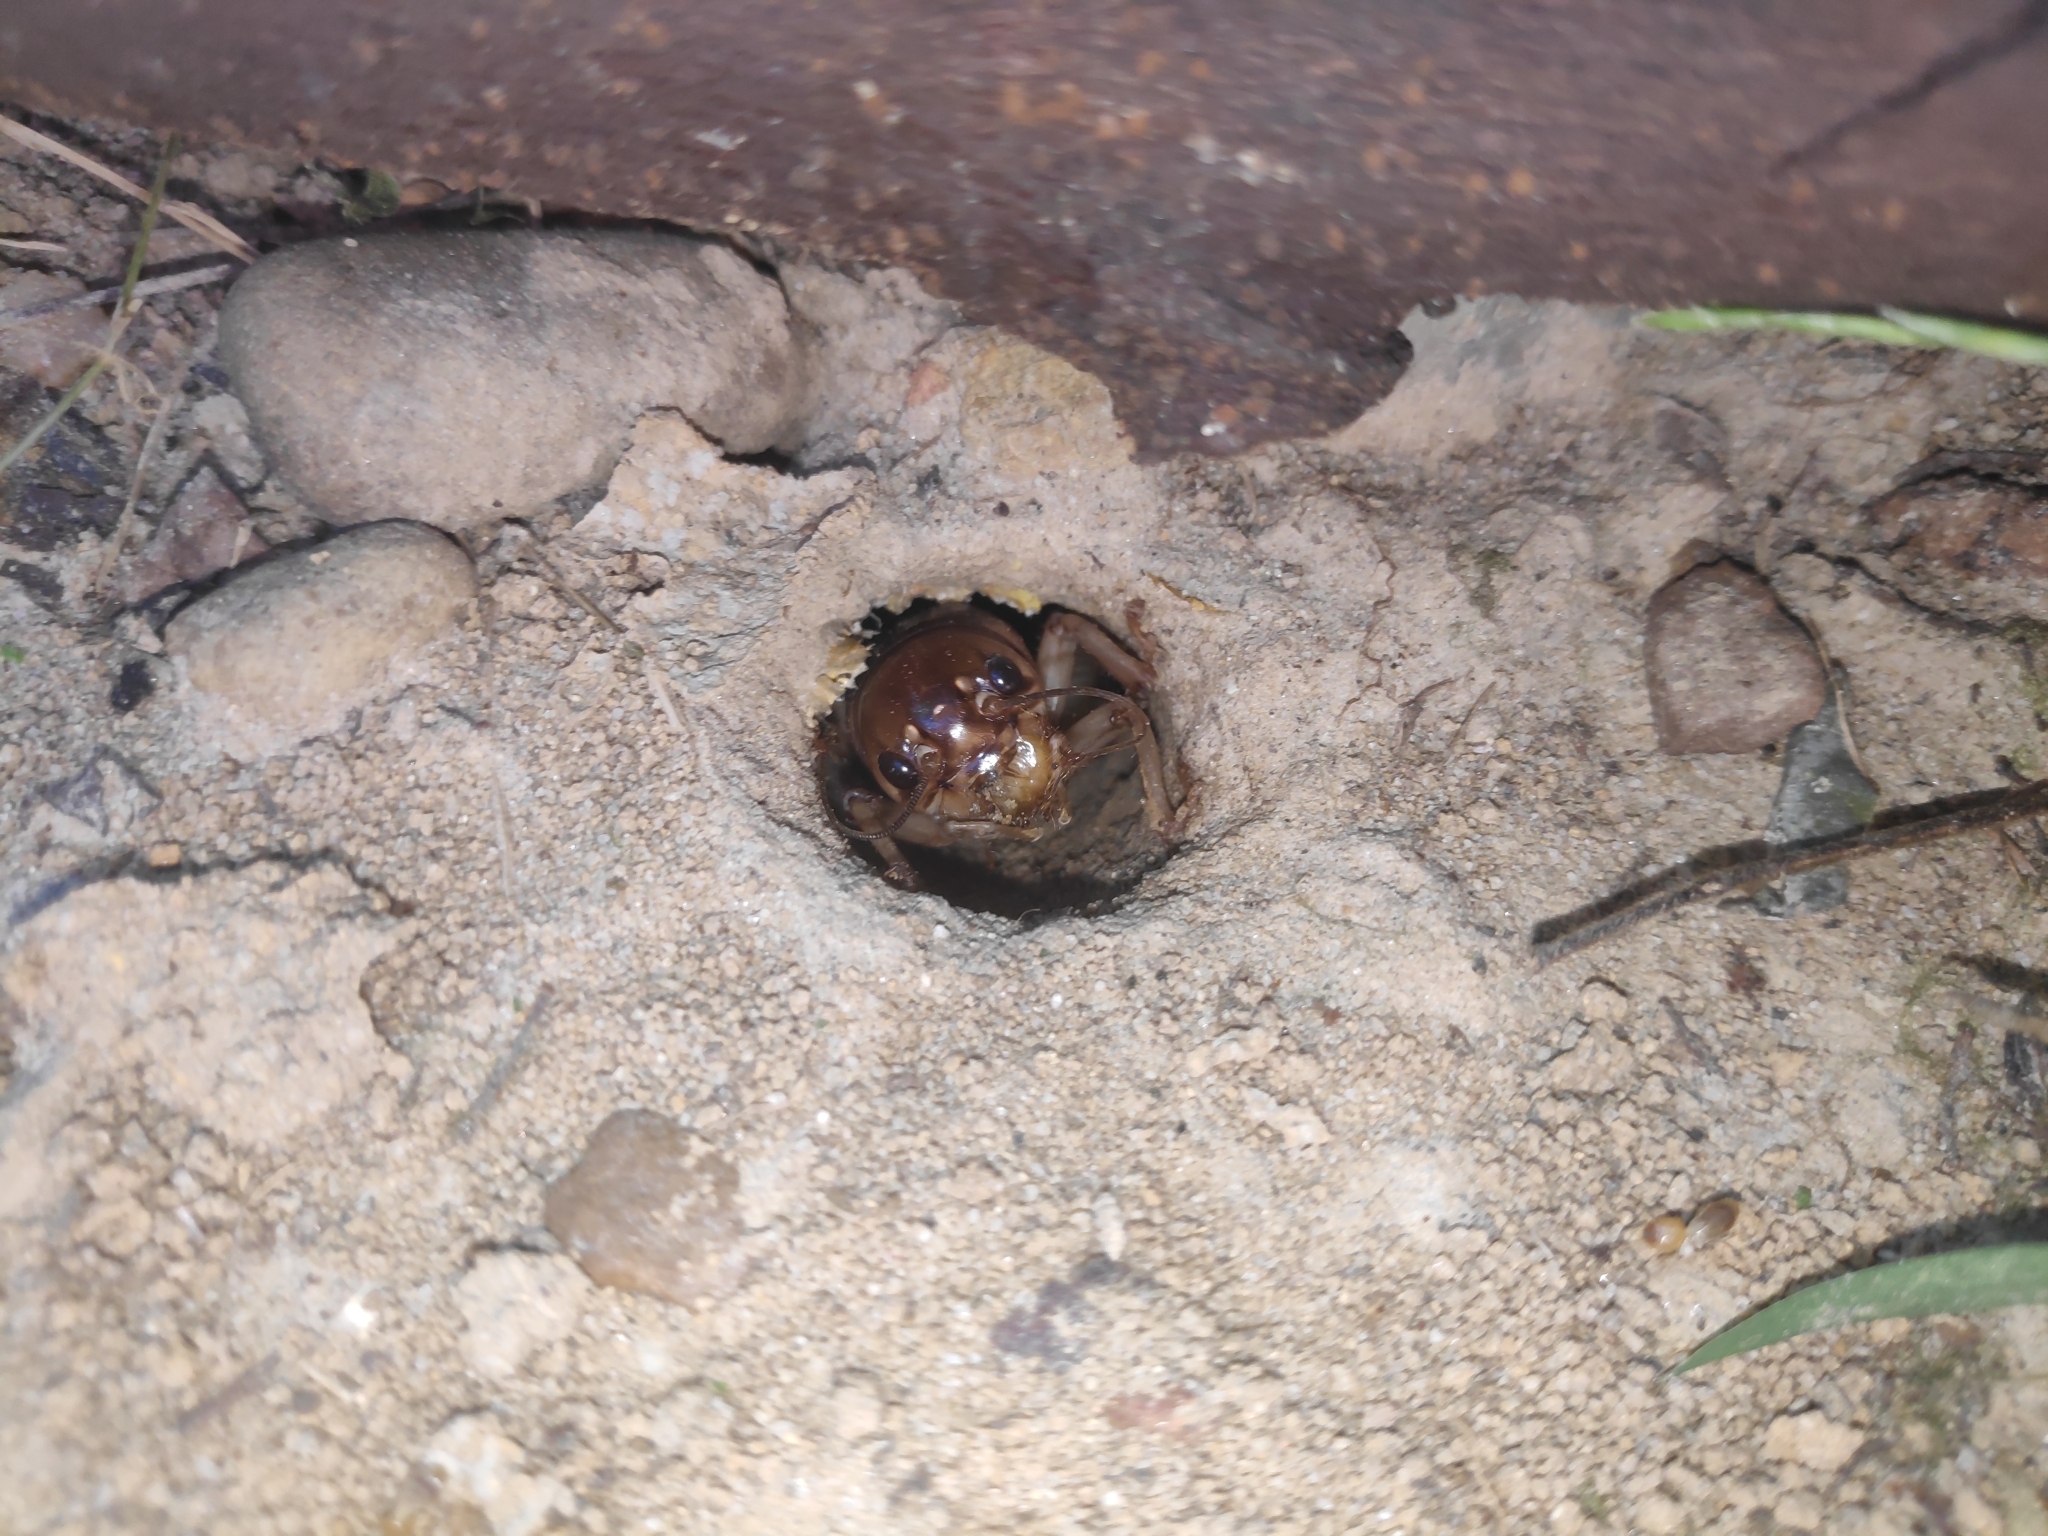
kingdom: Animalia
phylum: Arthropoda
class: Insecta
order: Orthoptera
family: Gryllidae
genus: Tarbinskiellus
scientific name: Tarbinskiellus portentosus
